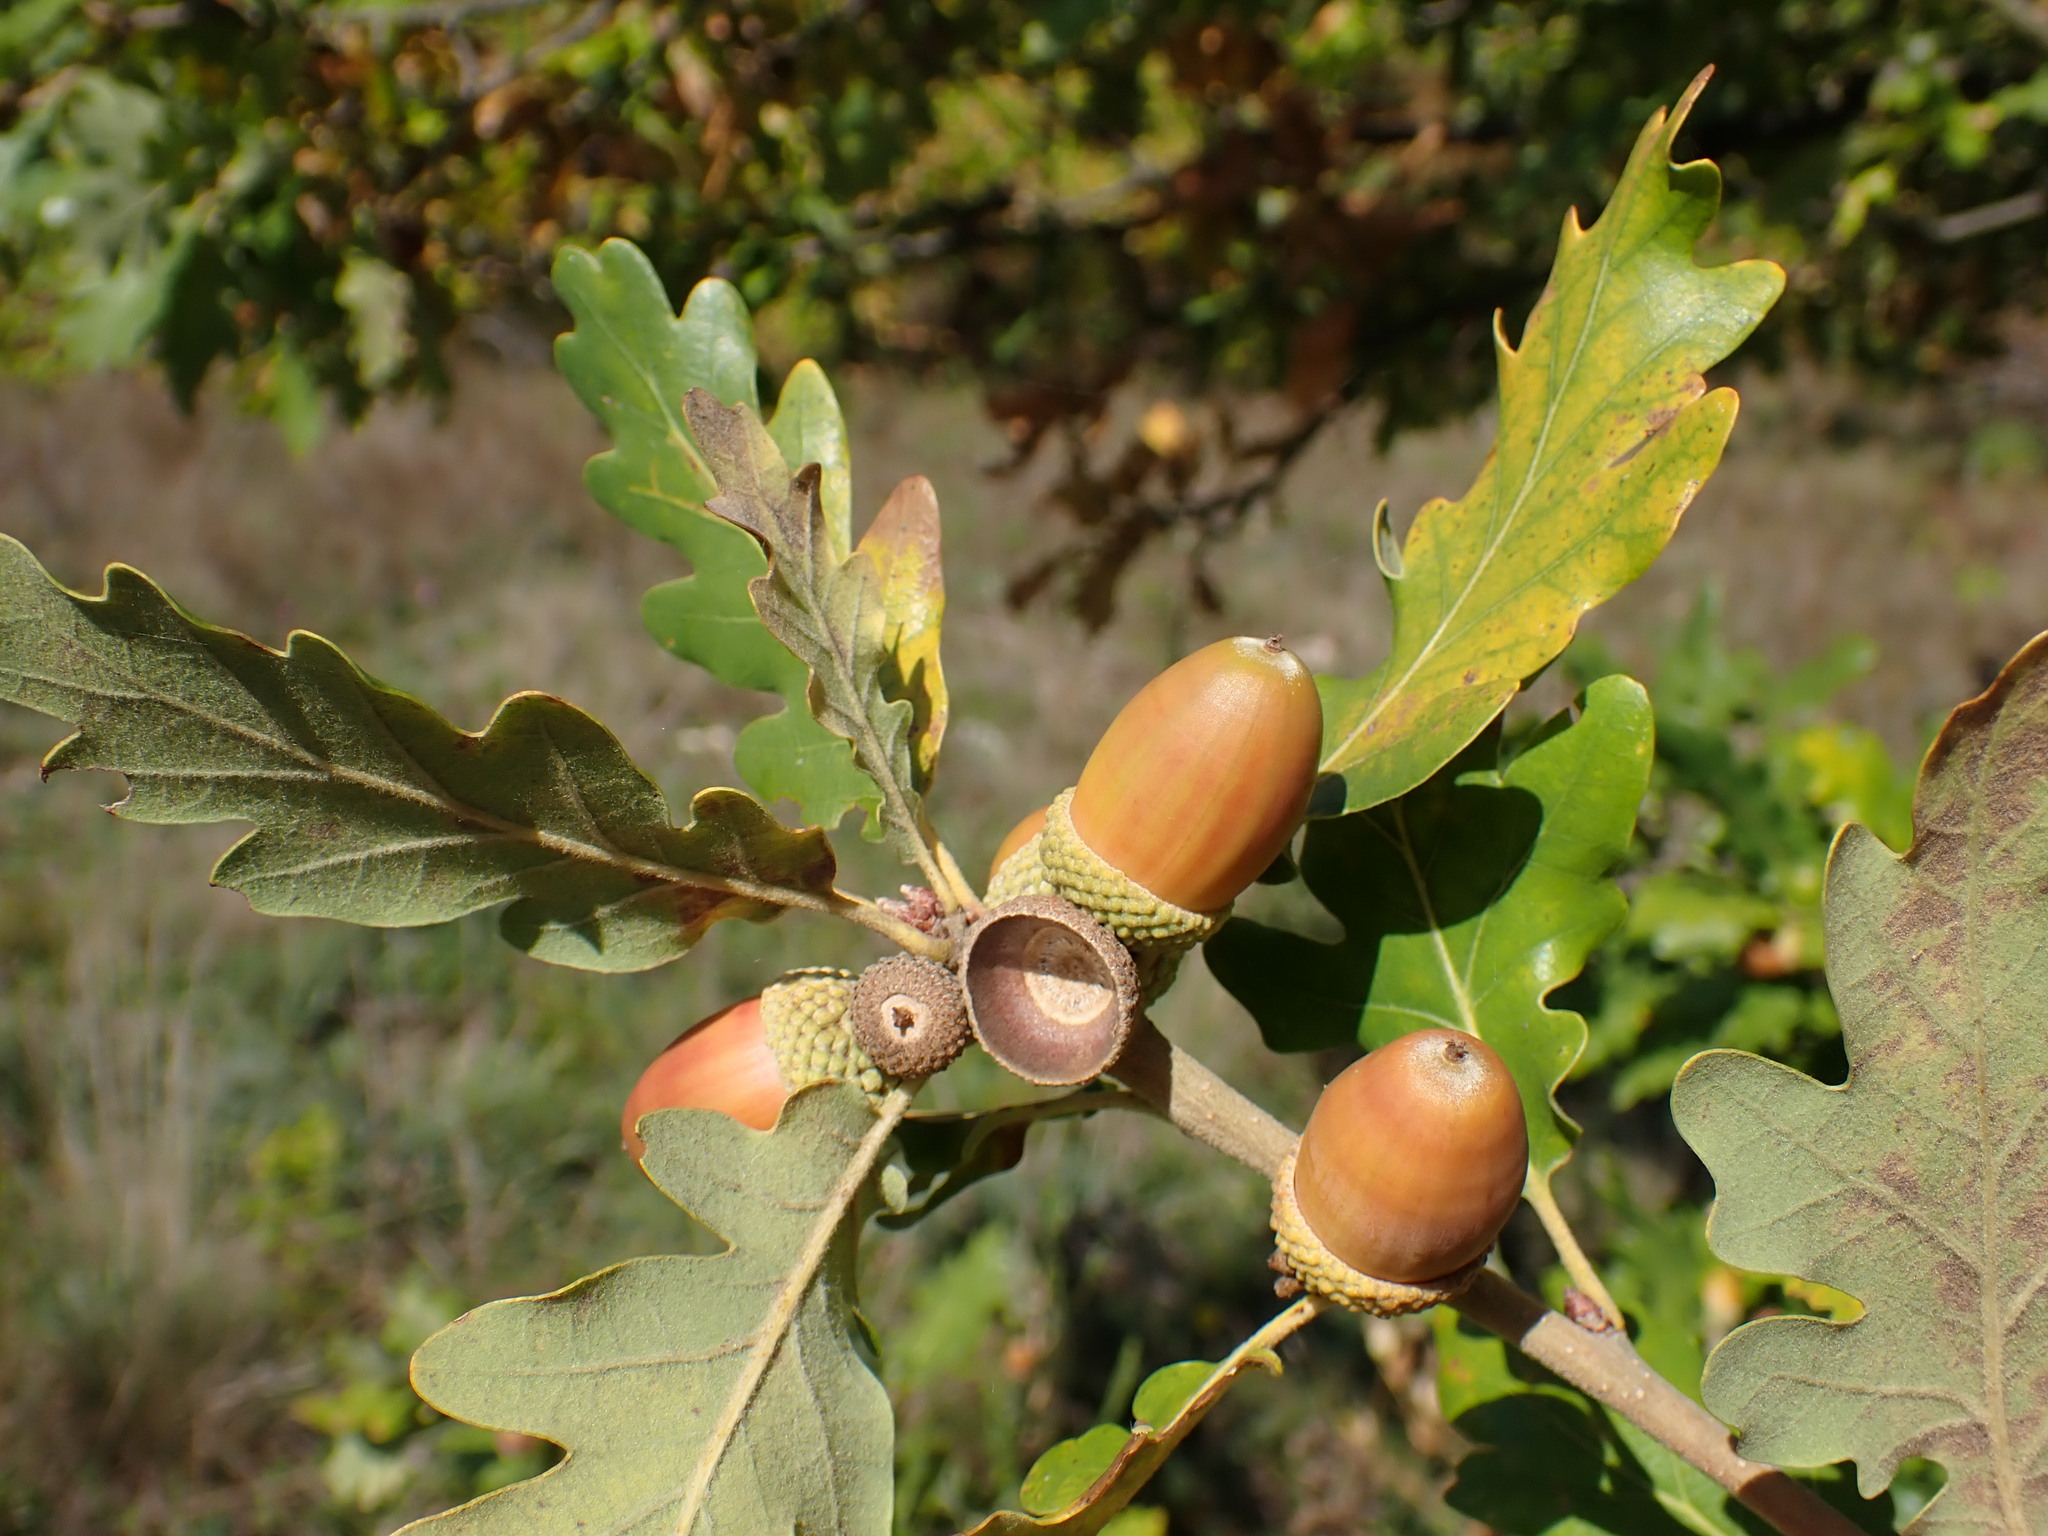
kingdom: Plantae
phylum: Tracheophyta
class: Magnoliopsida
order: Fagales
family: Fagaceae
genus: Quercus
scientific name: Quercus pubescens
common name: Downy oak
